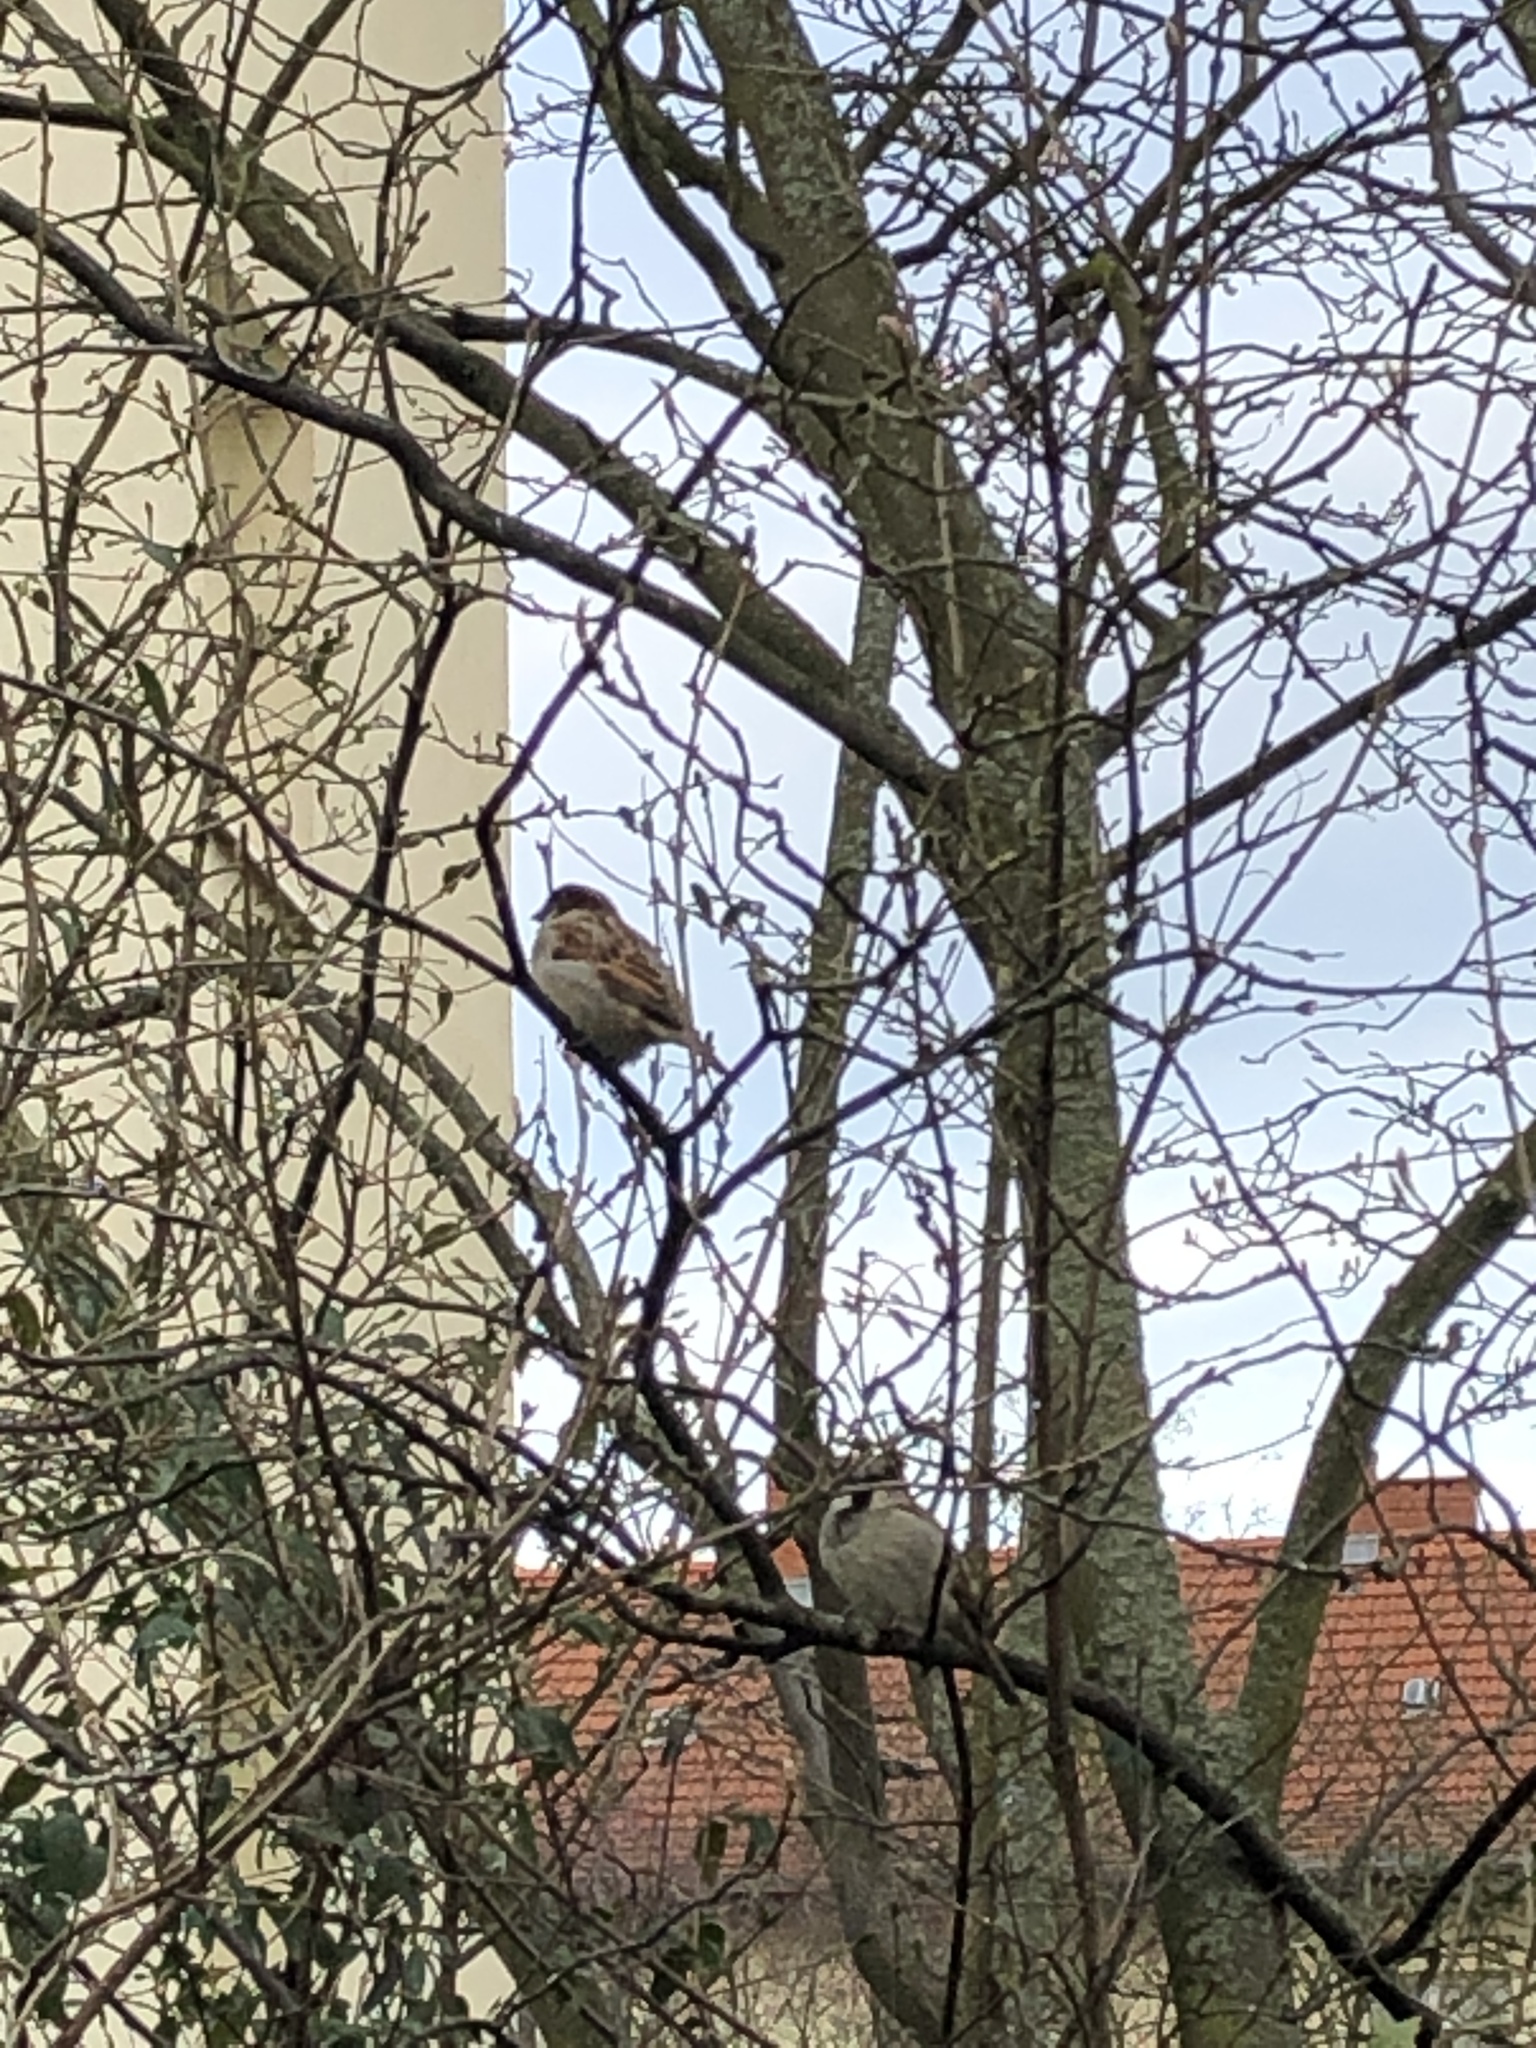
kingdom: Animalia
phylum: Chordata
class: Aves
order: Passeriformes
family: Passeridae
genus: Passer
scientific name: Passer domesticus
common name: House sparrow
